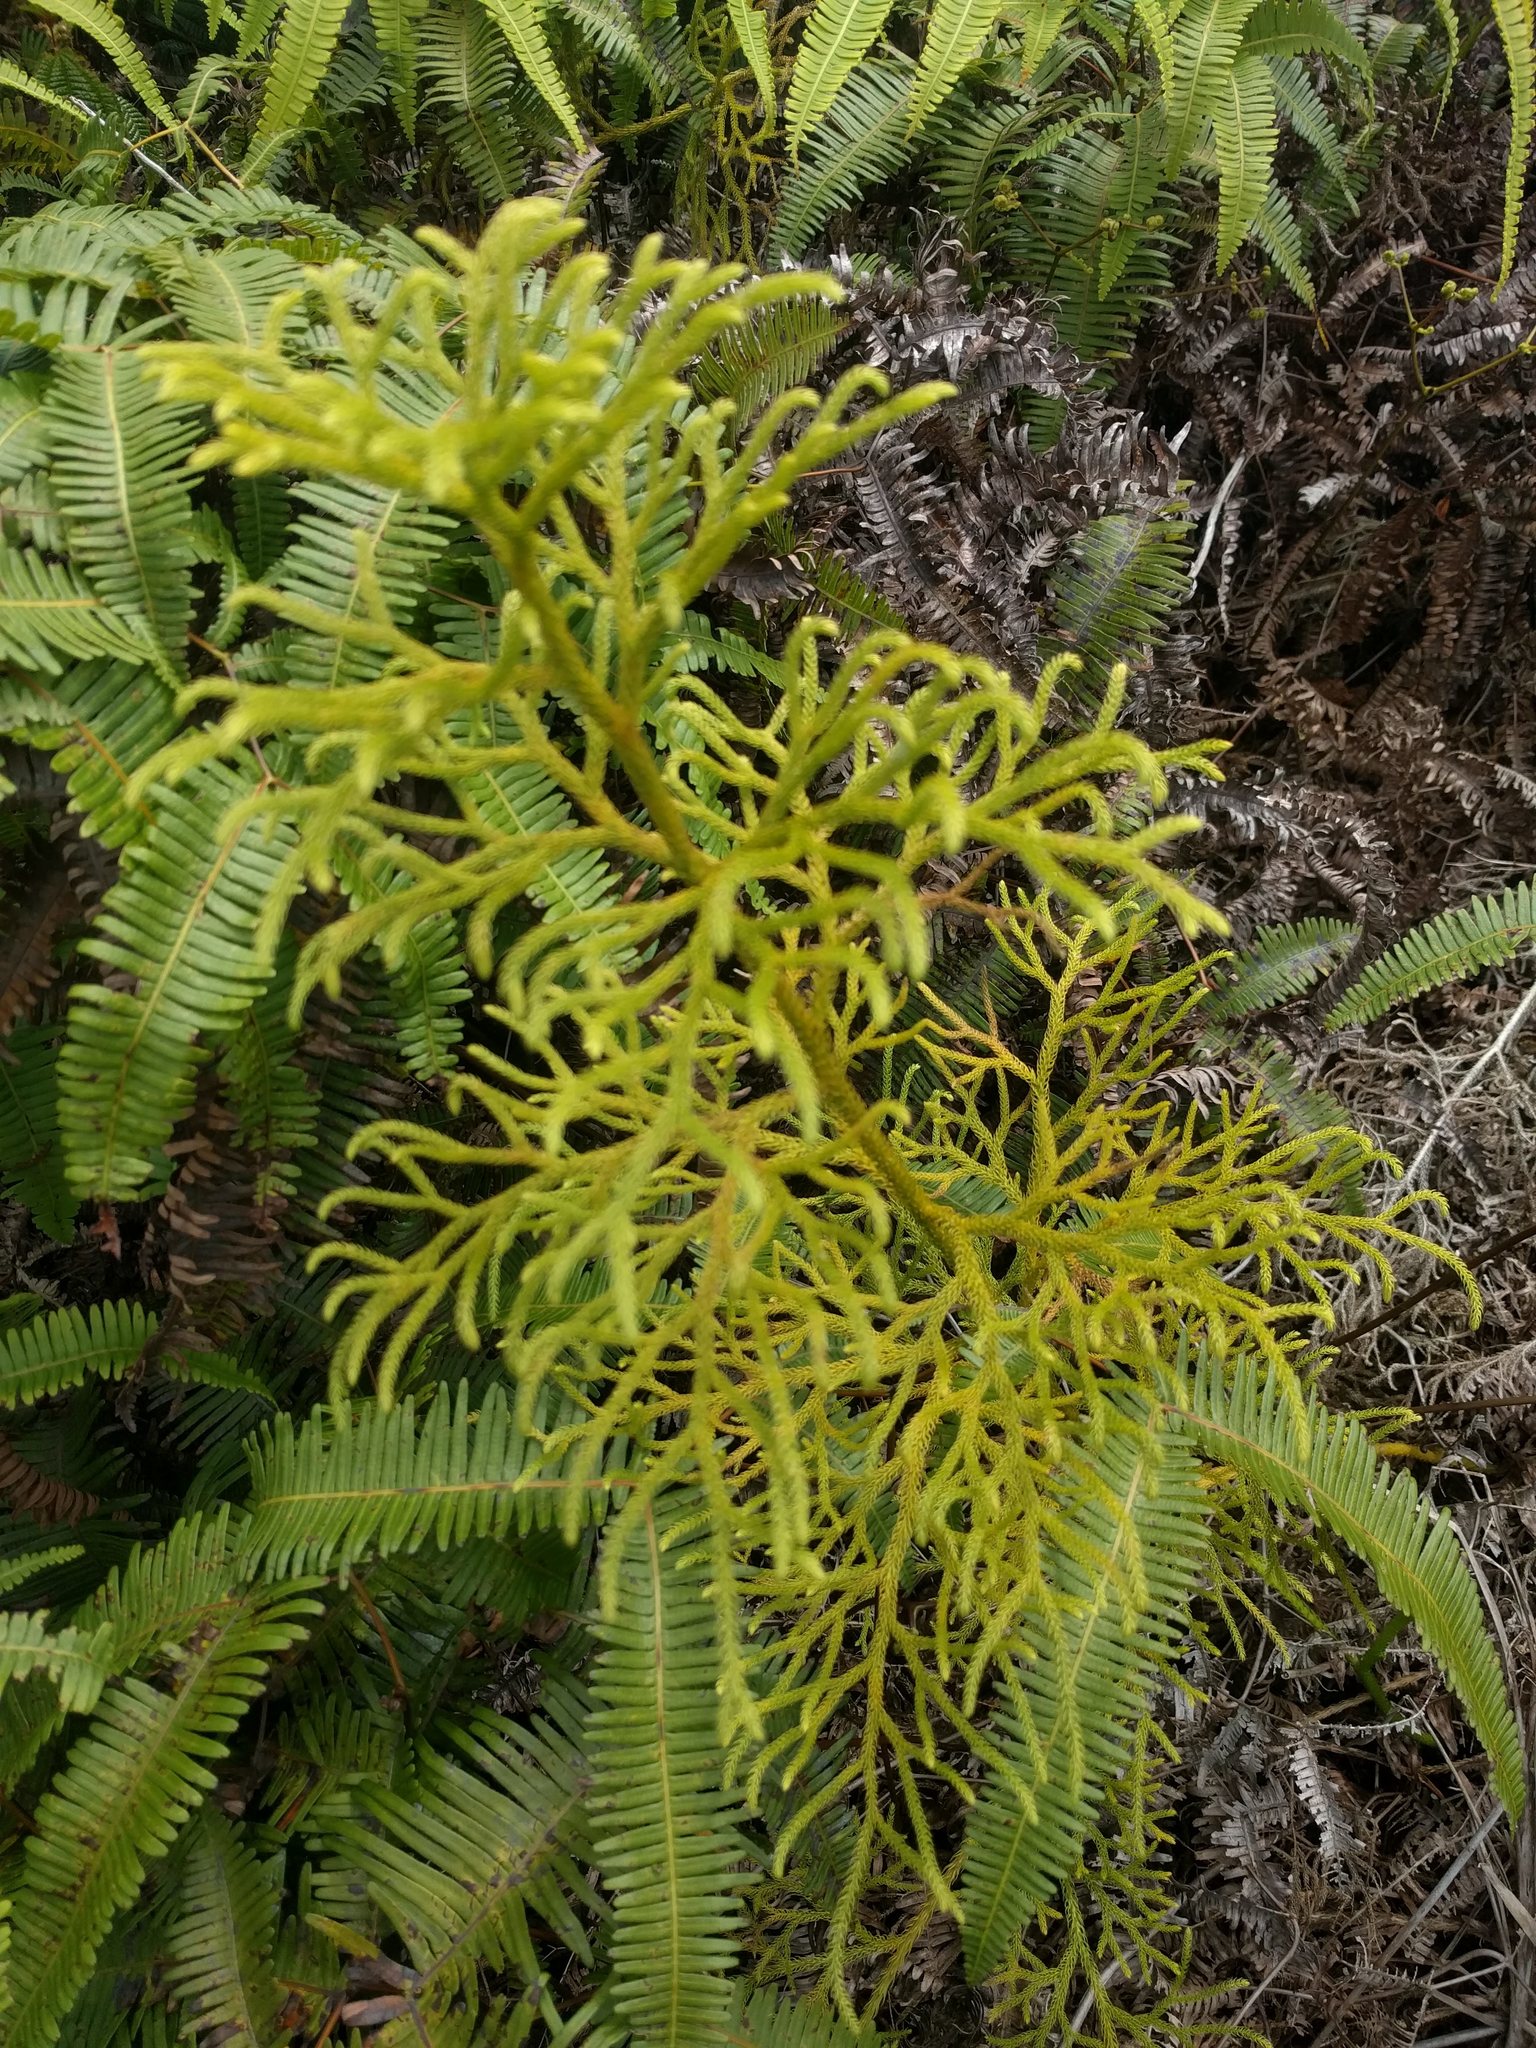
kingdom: Plantae
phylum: Tracheophyta
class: Lycopodiopsida
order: Lycopodiales
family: Lycopodiaceae
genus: Palhinhaea
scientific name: Palhinhaea cernua
